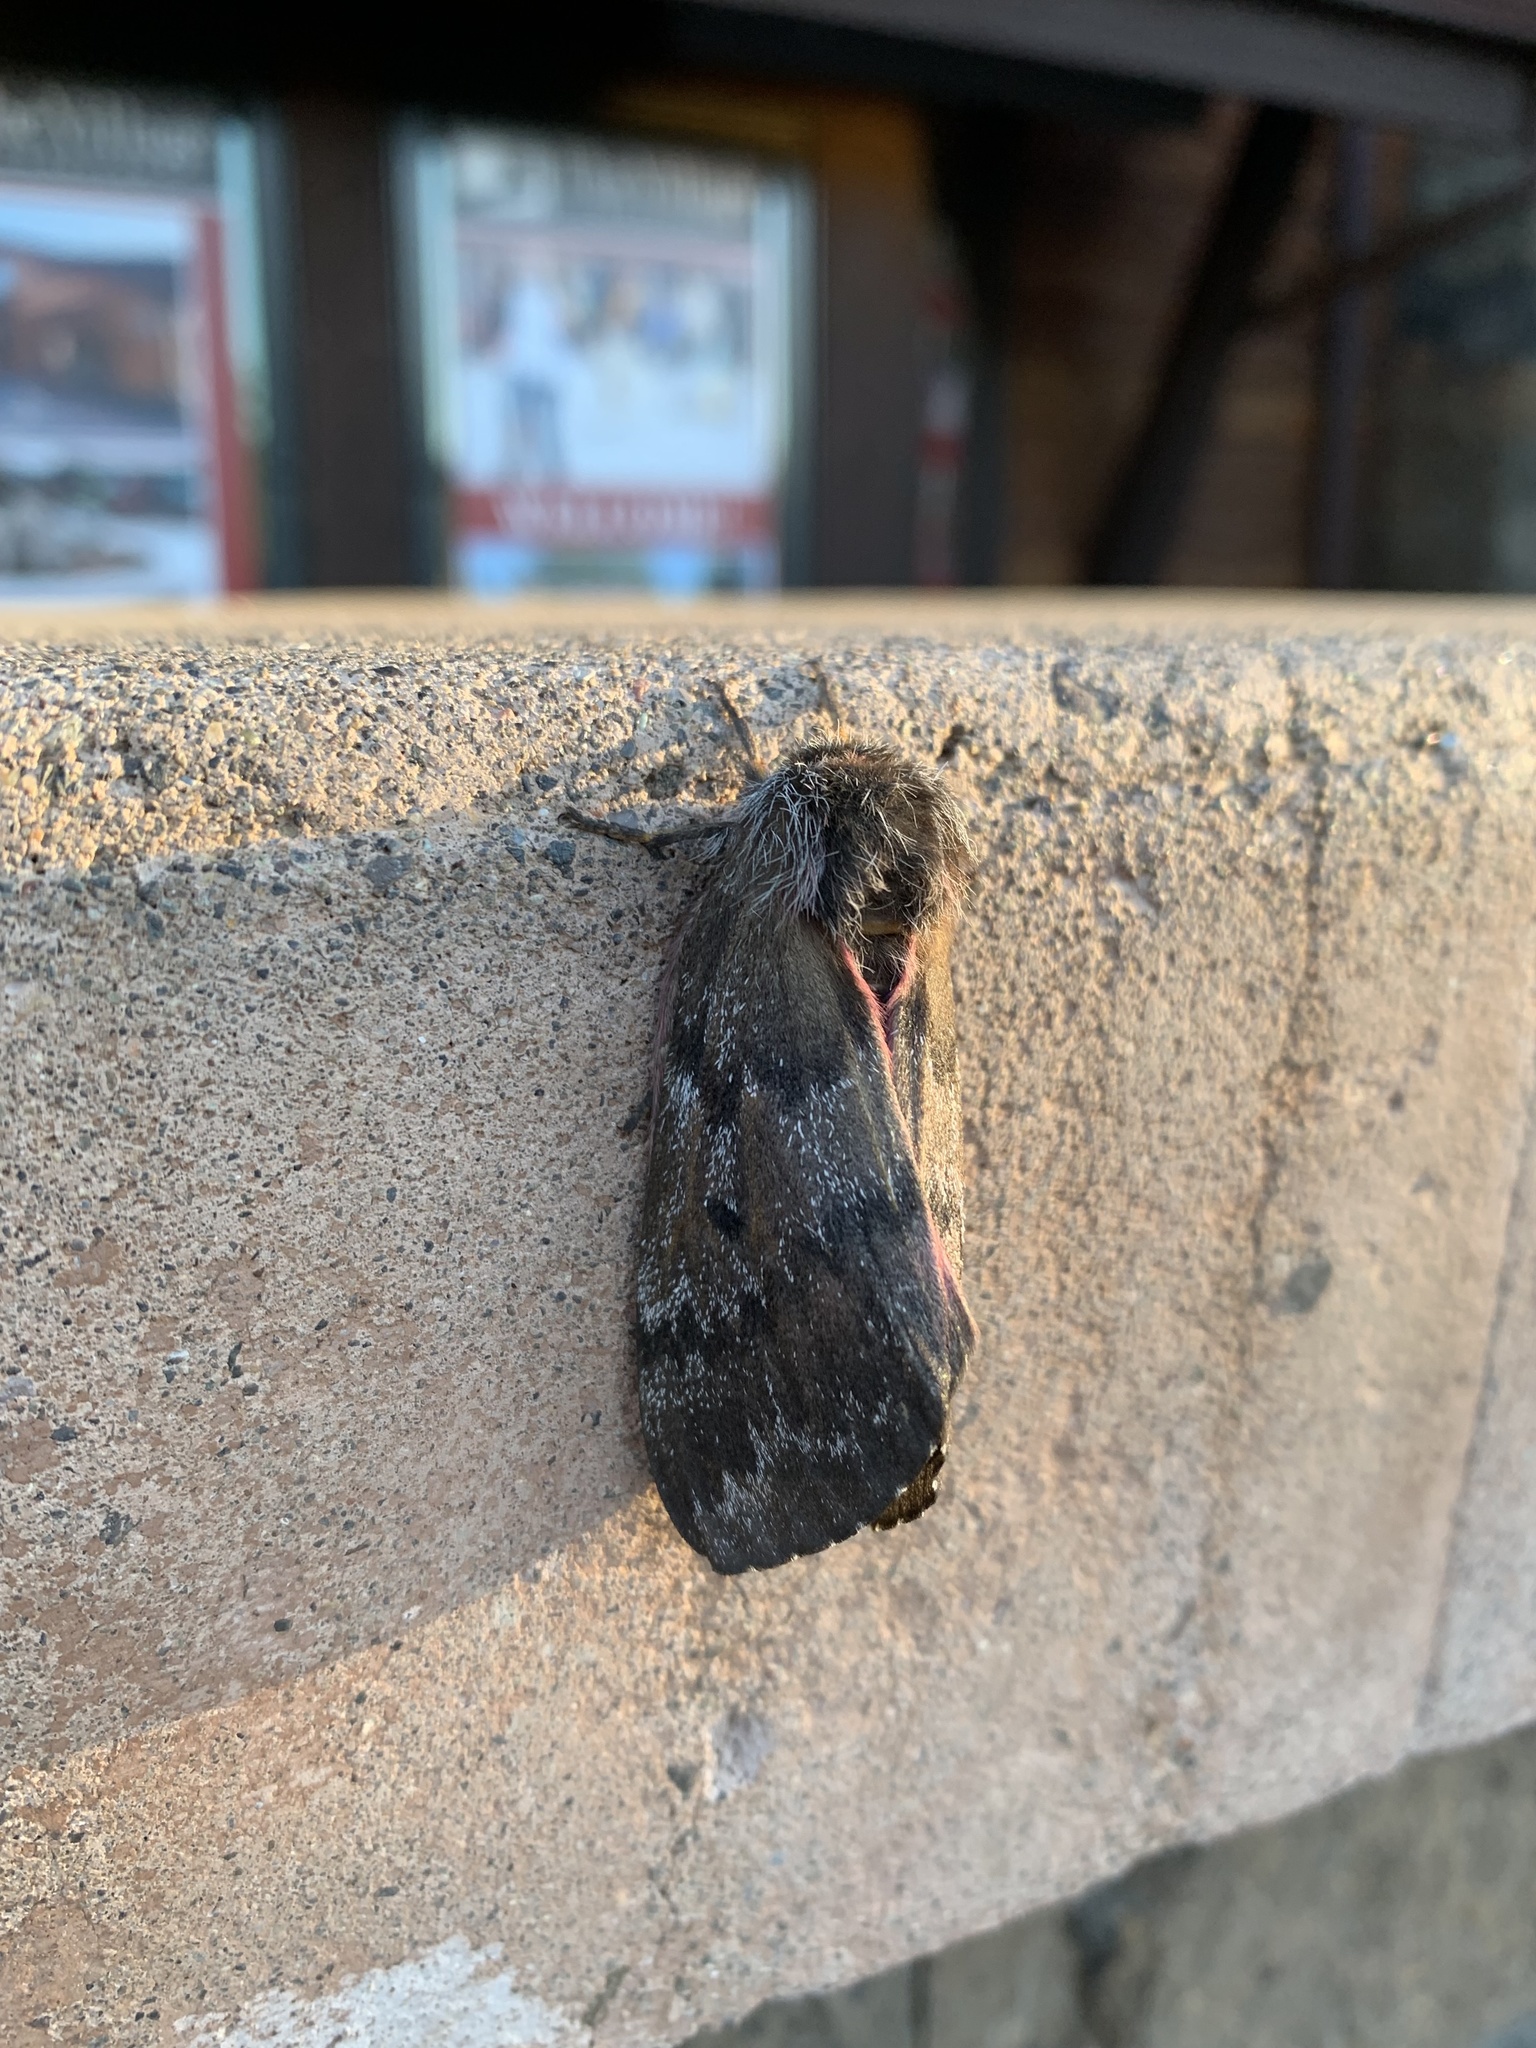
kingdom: Animalia
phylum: Arthropoda
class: Insecta
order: Lepidoptera
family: Saturniidae
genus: Coloradia
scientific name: Coloradia pandora
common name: Pandora pinemoth
